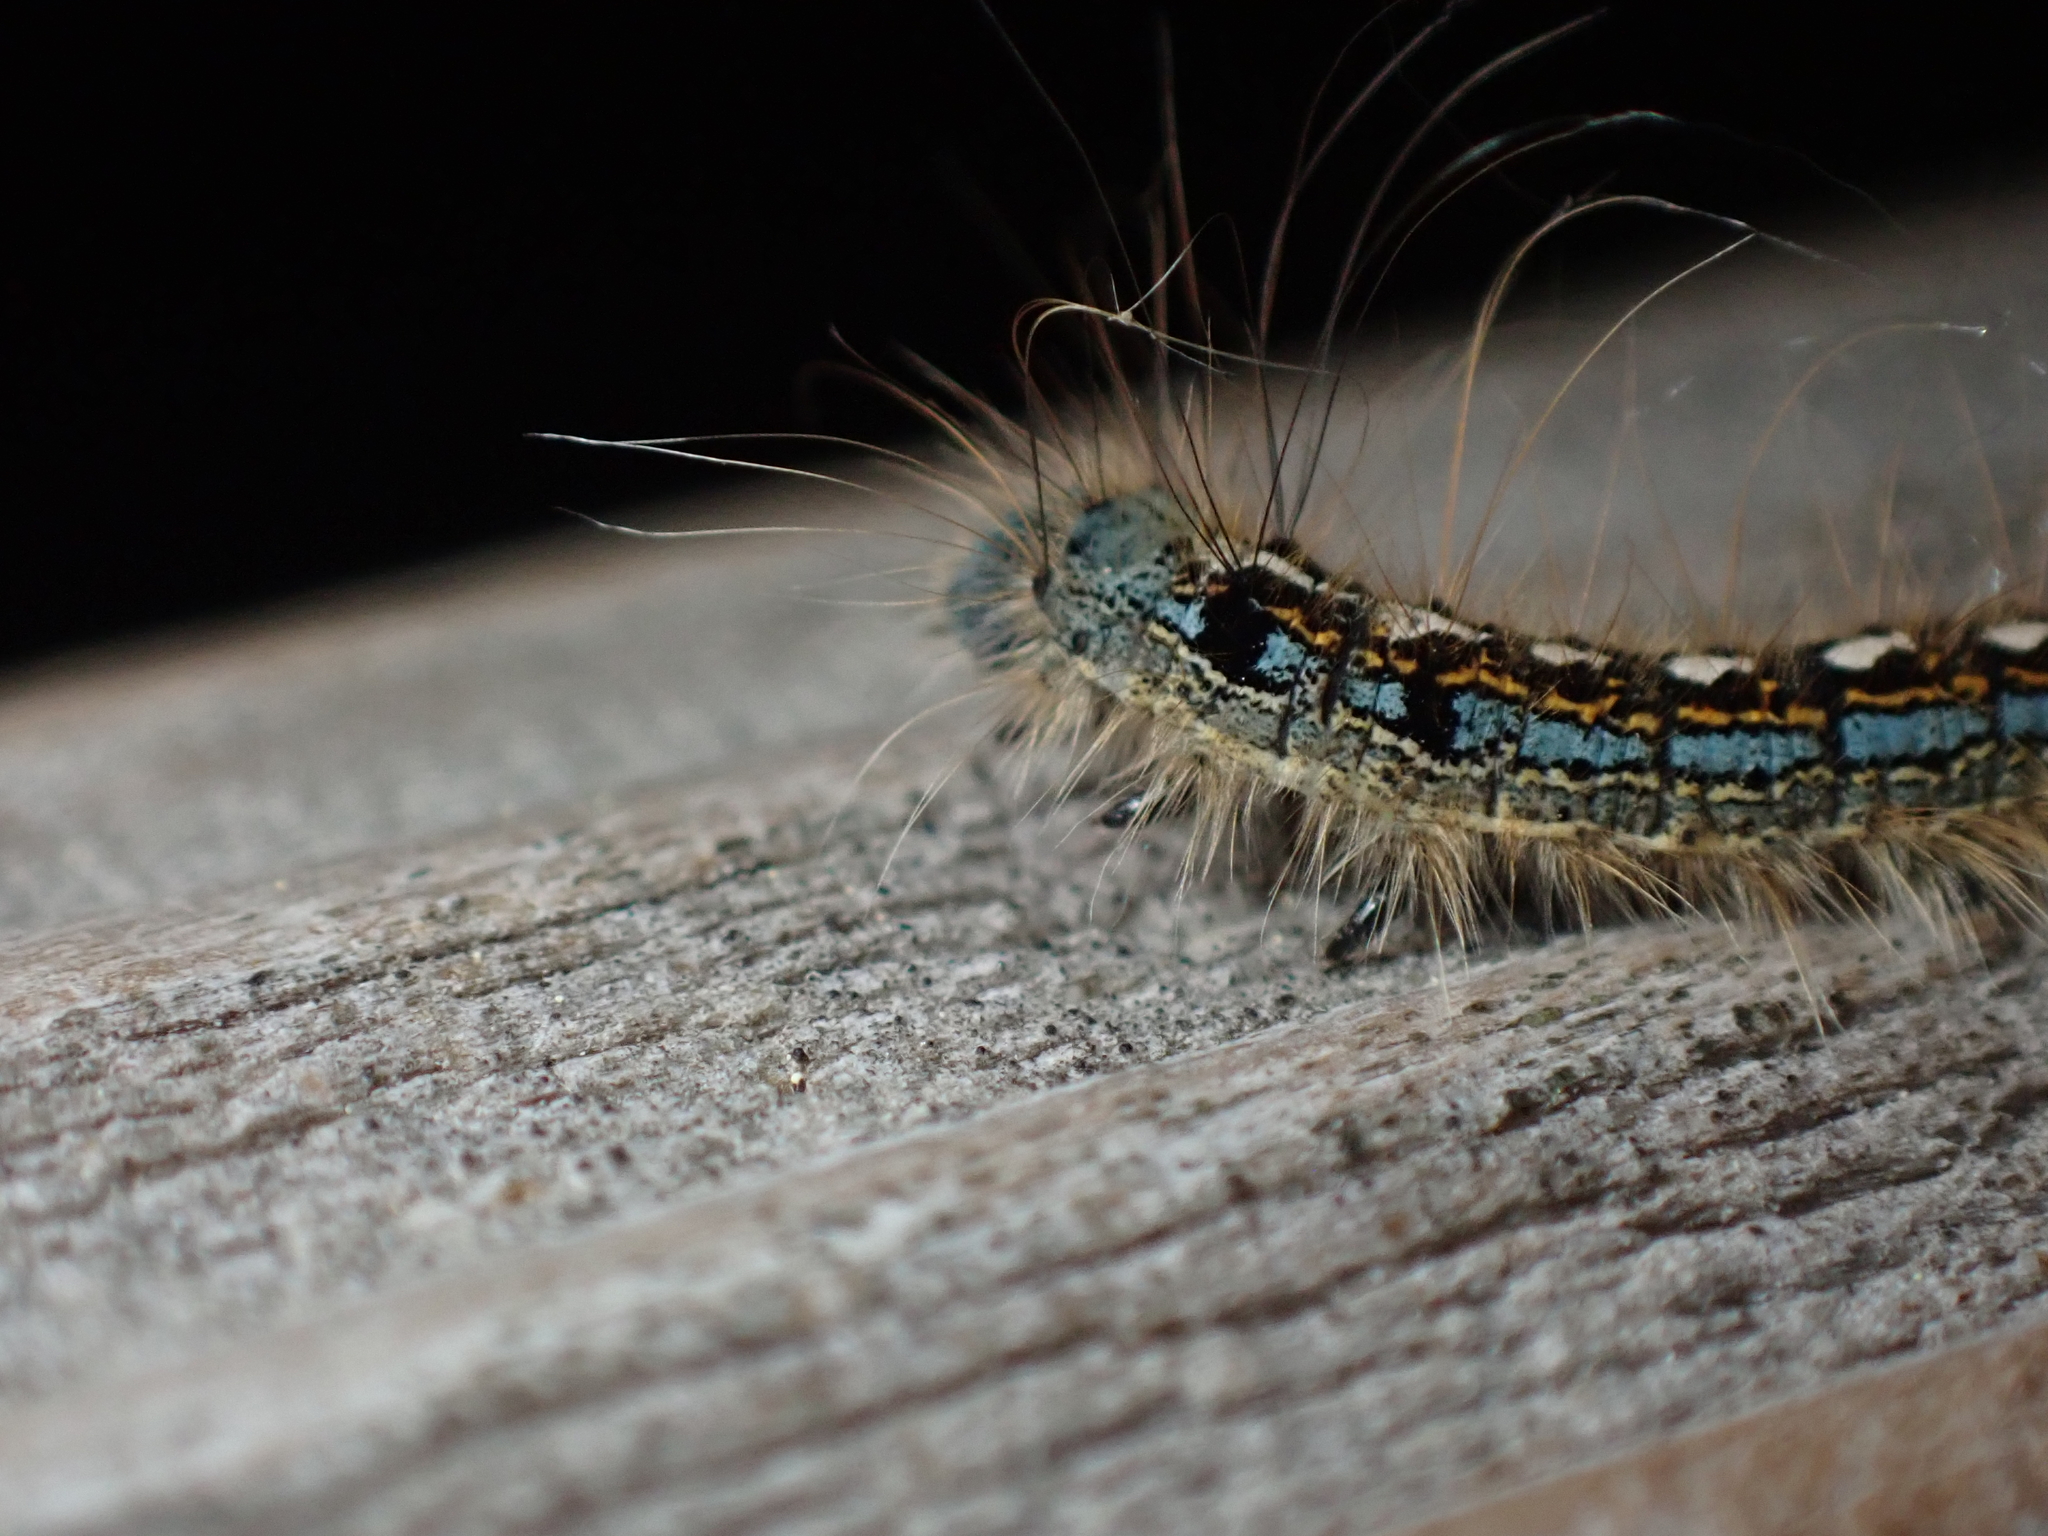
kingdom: Animalia
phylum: Arthropoda
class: Insecta
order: Lepidoptera
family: Lasiocampidae
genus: Malacosoma
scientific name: Malacosoma disstria
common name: Forest tent caterpillar
